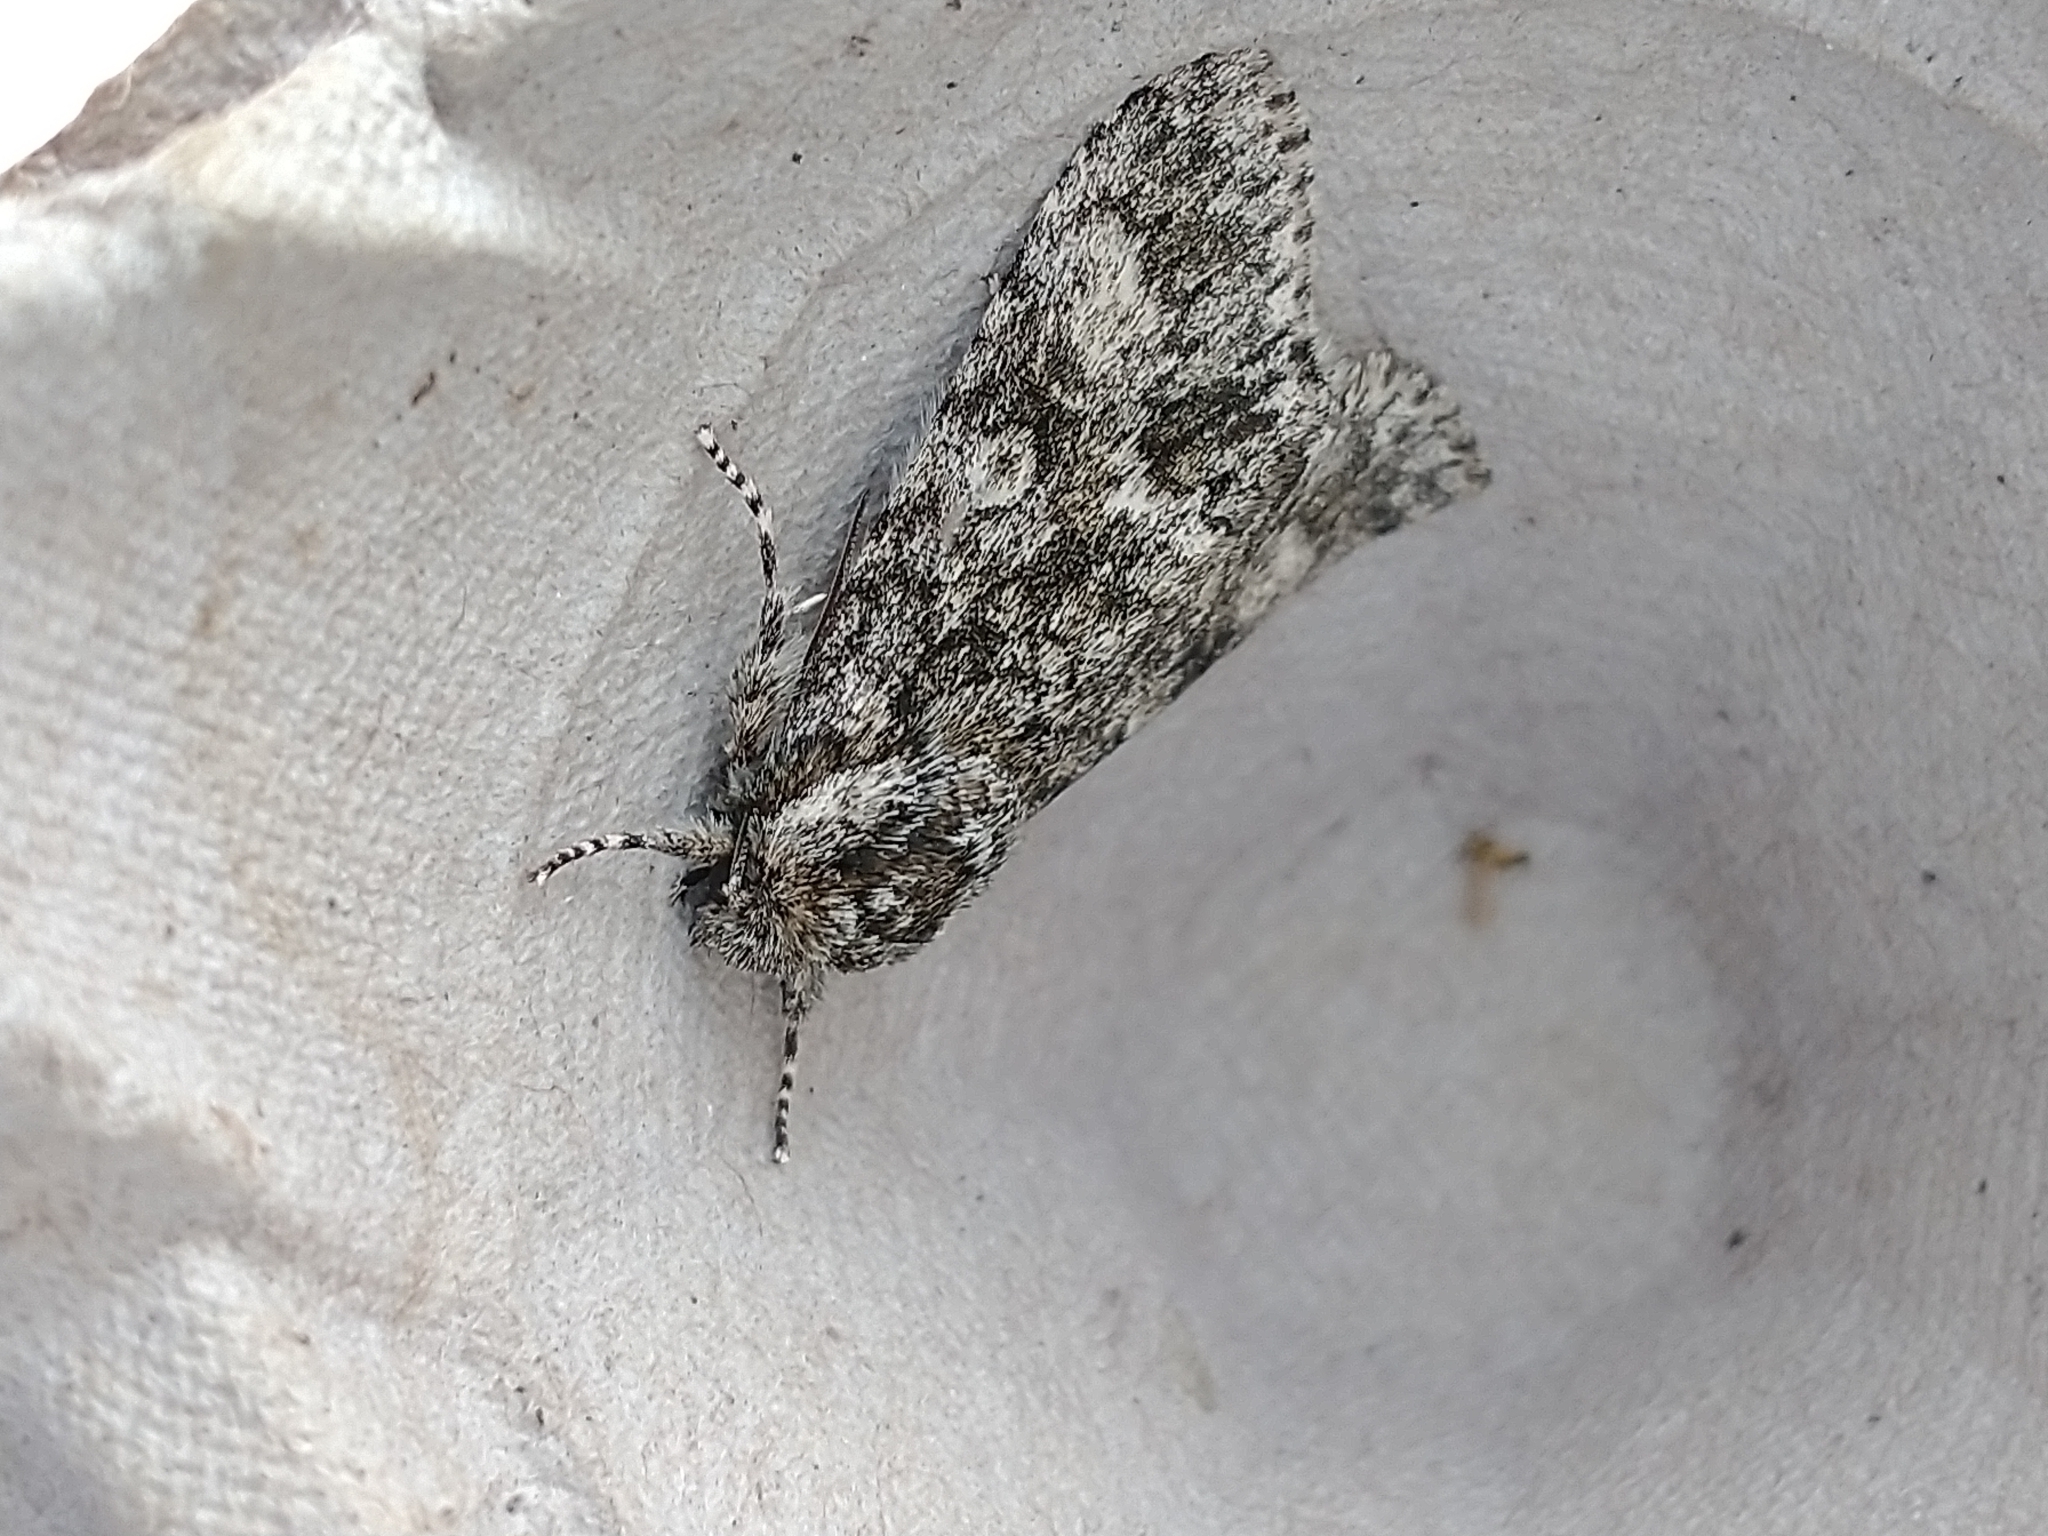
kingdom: Animalia
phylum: Arthropoda
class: Insecta
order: Lepidoptera
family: Noctuidae
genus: Acronicta
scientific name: Acronicta megacephala
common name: Poplar grey
